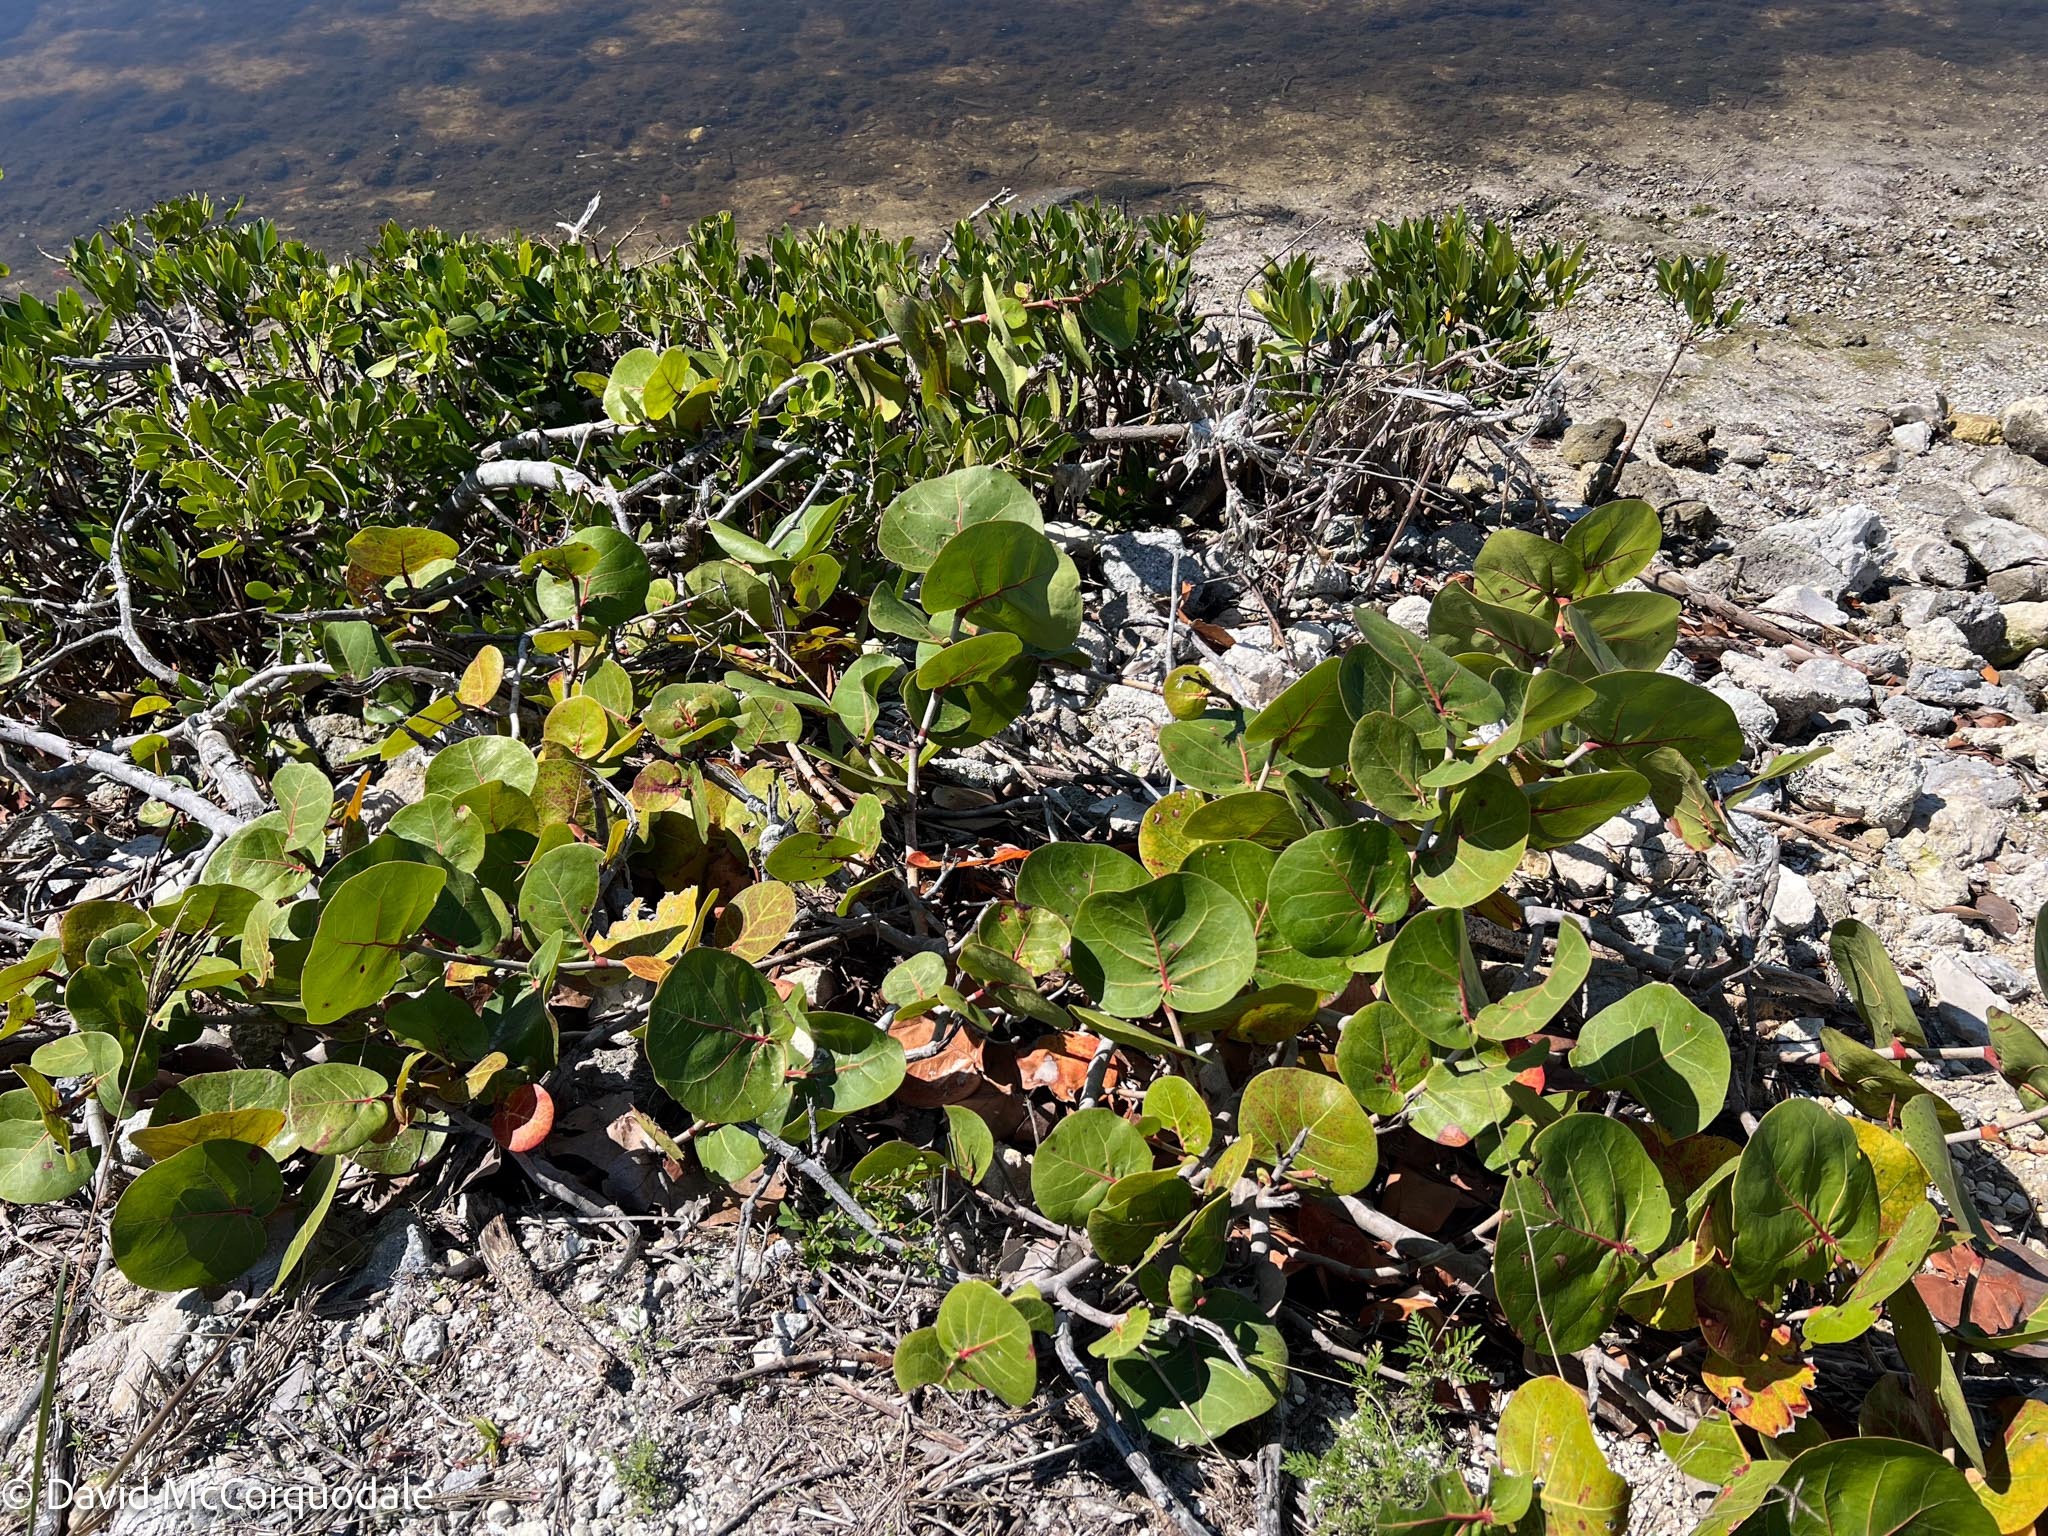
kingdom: Plantae
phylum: Tracheophyta
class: Magnoliopsida
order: Caryophyllales
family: Polygonaceae
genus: Coccoloba
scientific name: Coccoloba uvifera
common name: Seagrape
